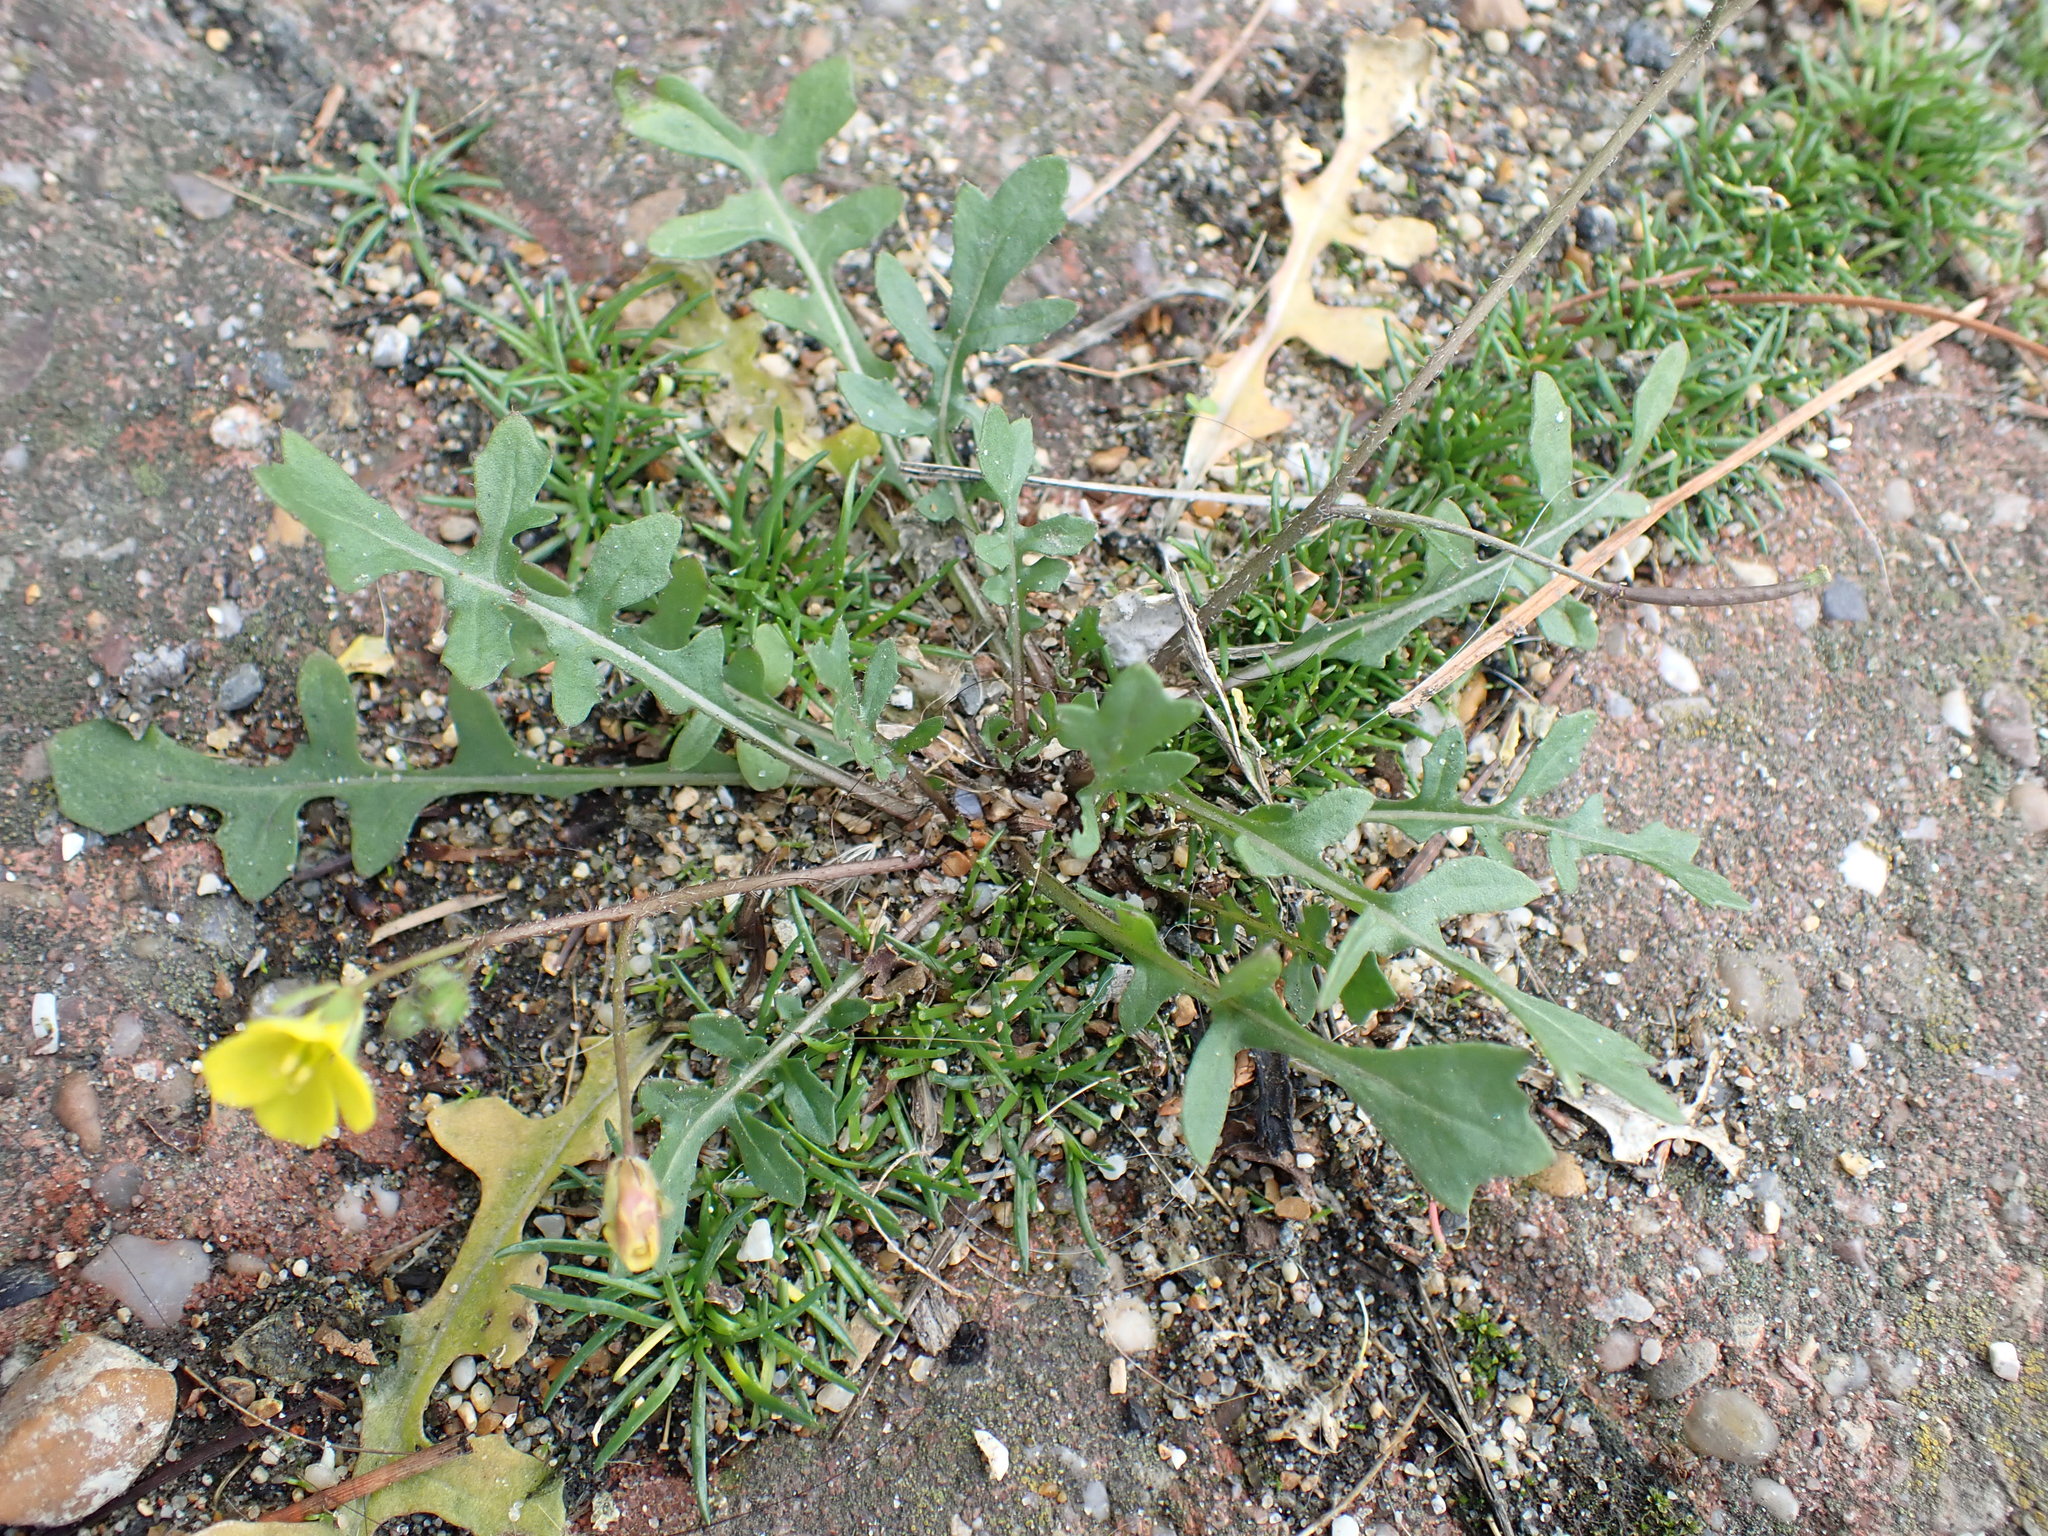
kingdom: Plantae
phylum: Tracheophyta
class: Magnoliopsida
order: Brassicales
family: Brassicaceae
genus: Diplotaxis
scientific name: Diplotaxis muralis
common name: Annual wall-rocket
